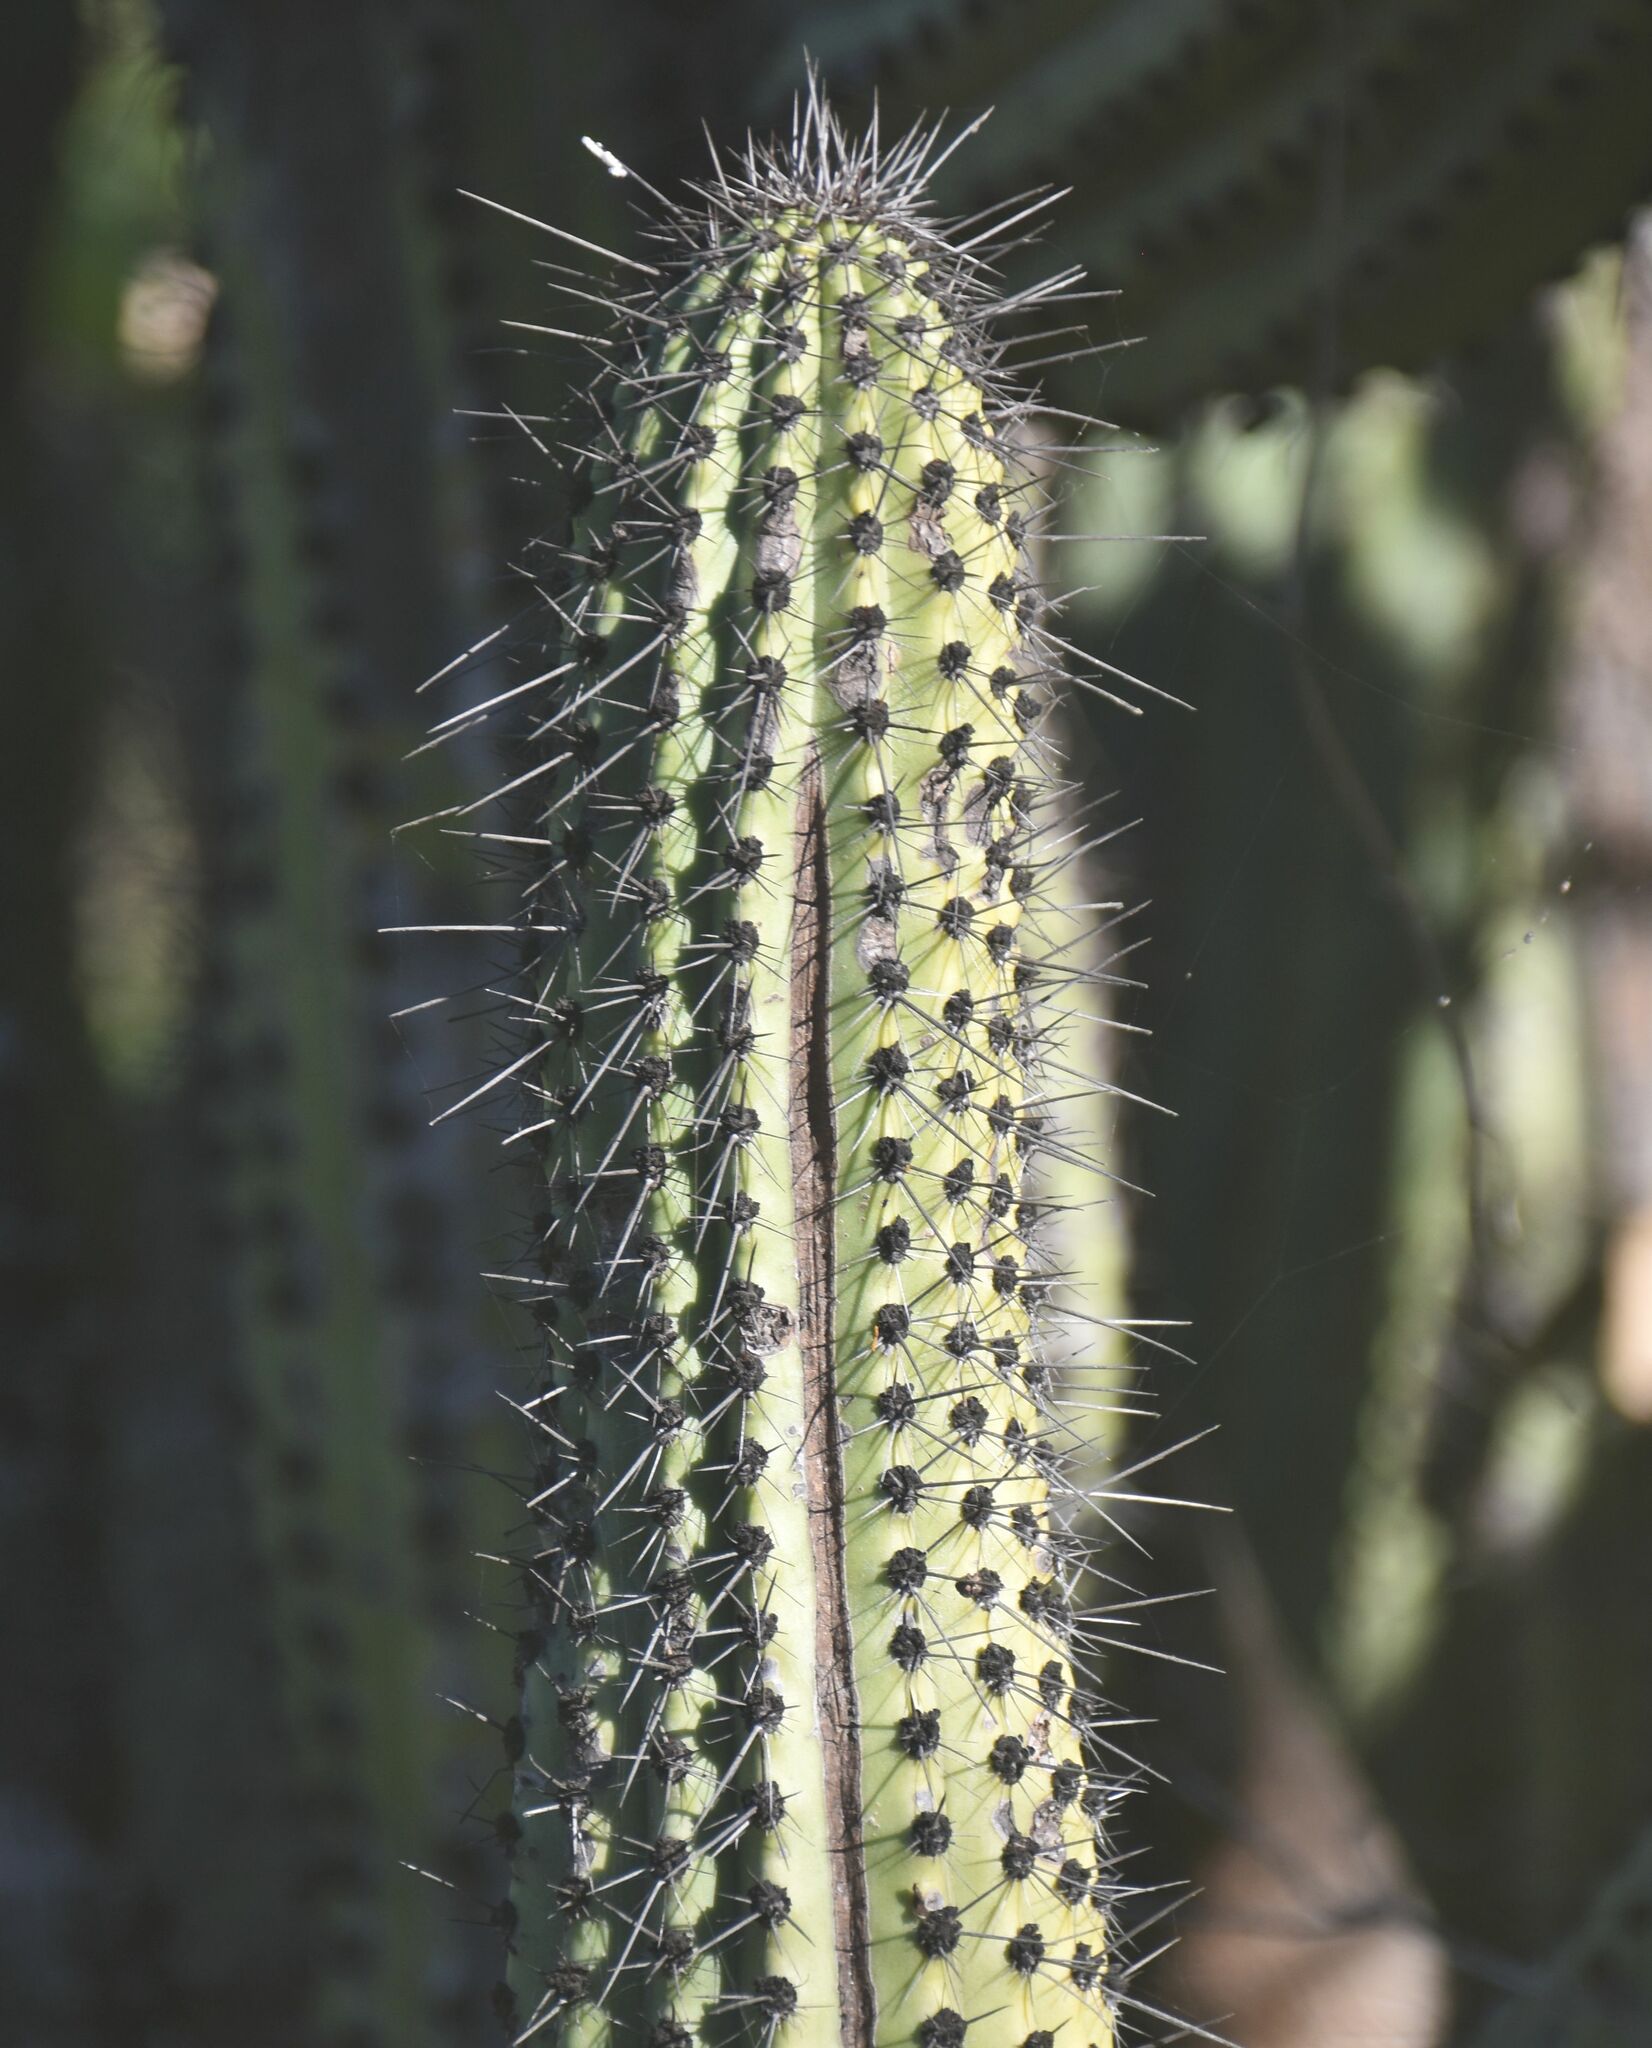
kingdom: Plantae
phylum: Tracheophyta
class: Magnoliopsida
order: Caryophyllales
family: Cactaceae
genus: Stenocereus
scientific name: Stenocereus thurberi
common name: Organ pipe cactus
